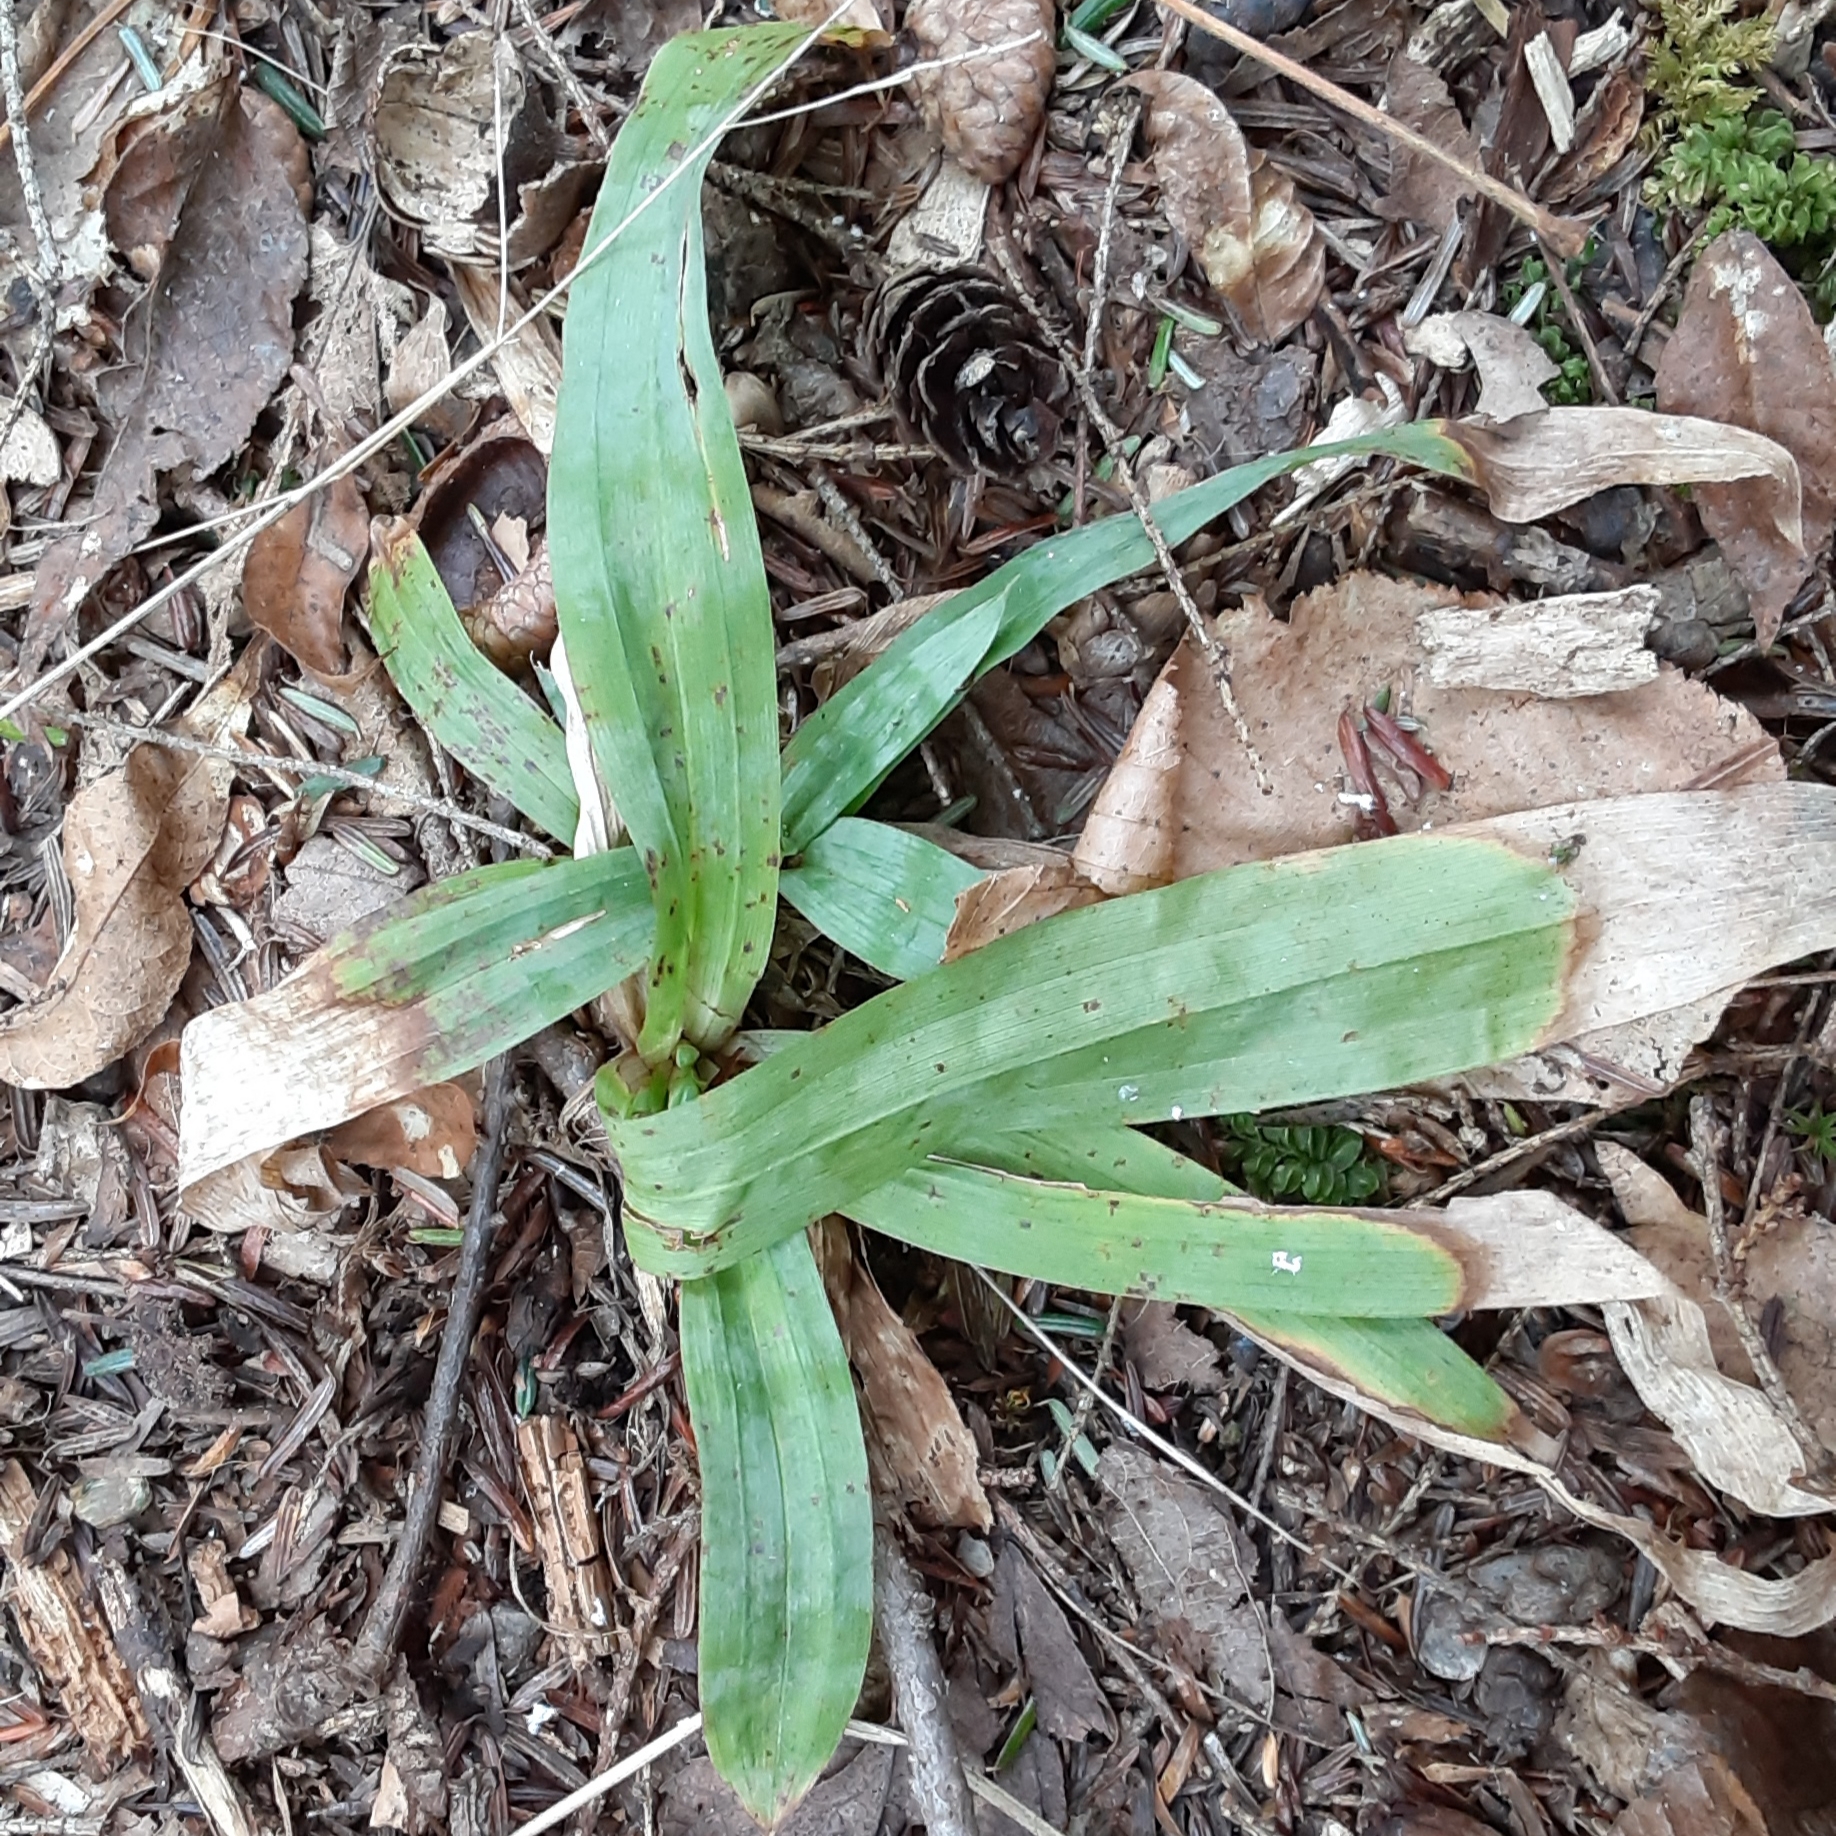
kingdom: Plantae
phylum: Tracheophyta
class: Liliopsida
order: Poales
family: Cyperaceae
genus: Carex
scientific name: Carex platyphylla
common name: Broad-leaved sedge
